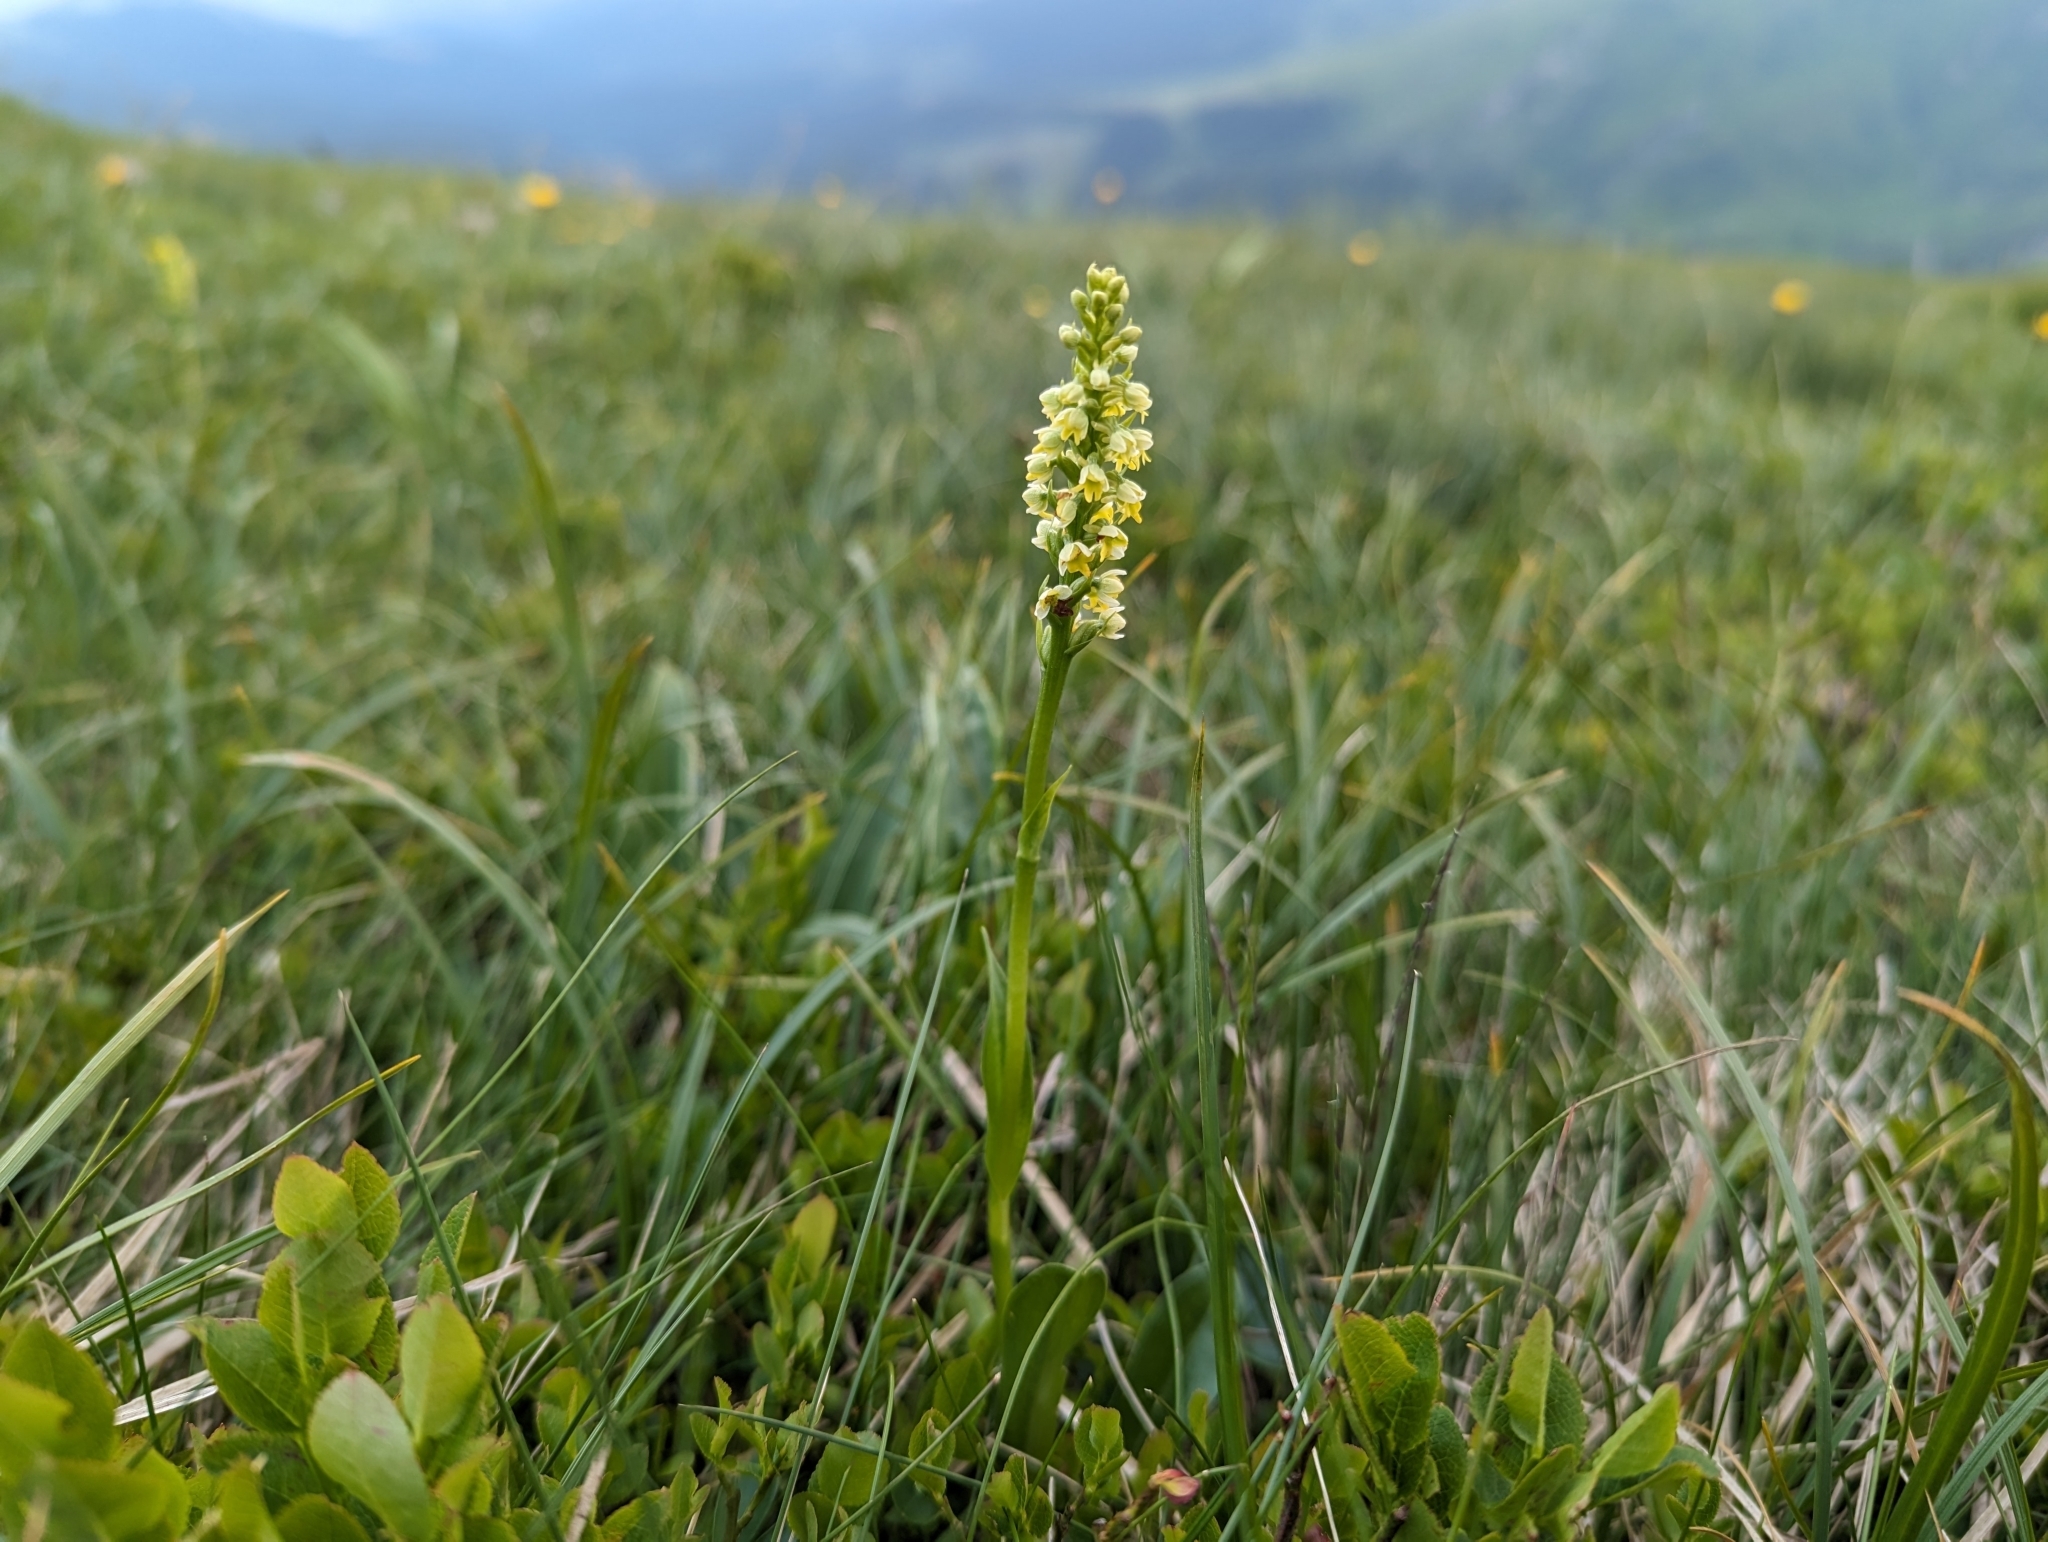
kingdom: Plantae
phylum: Tracheophyta
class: Liliopsida
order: Asparagales
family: Orchidaceae
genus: Pseudorchis
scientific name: Pseudorchis albida
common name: Small-white orchid
